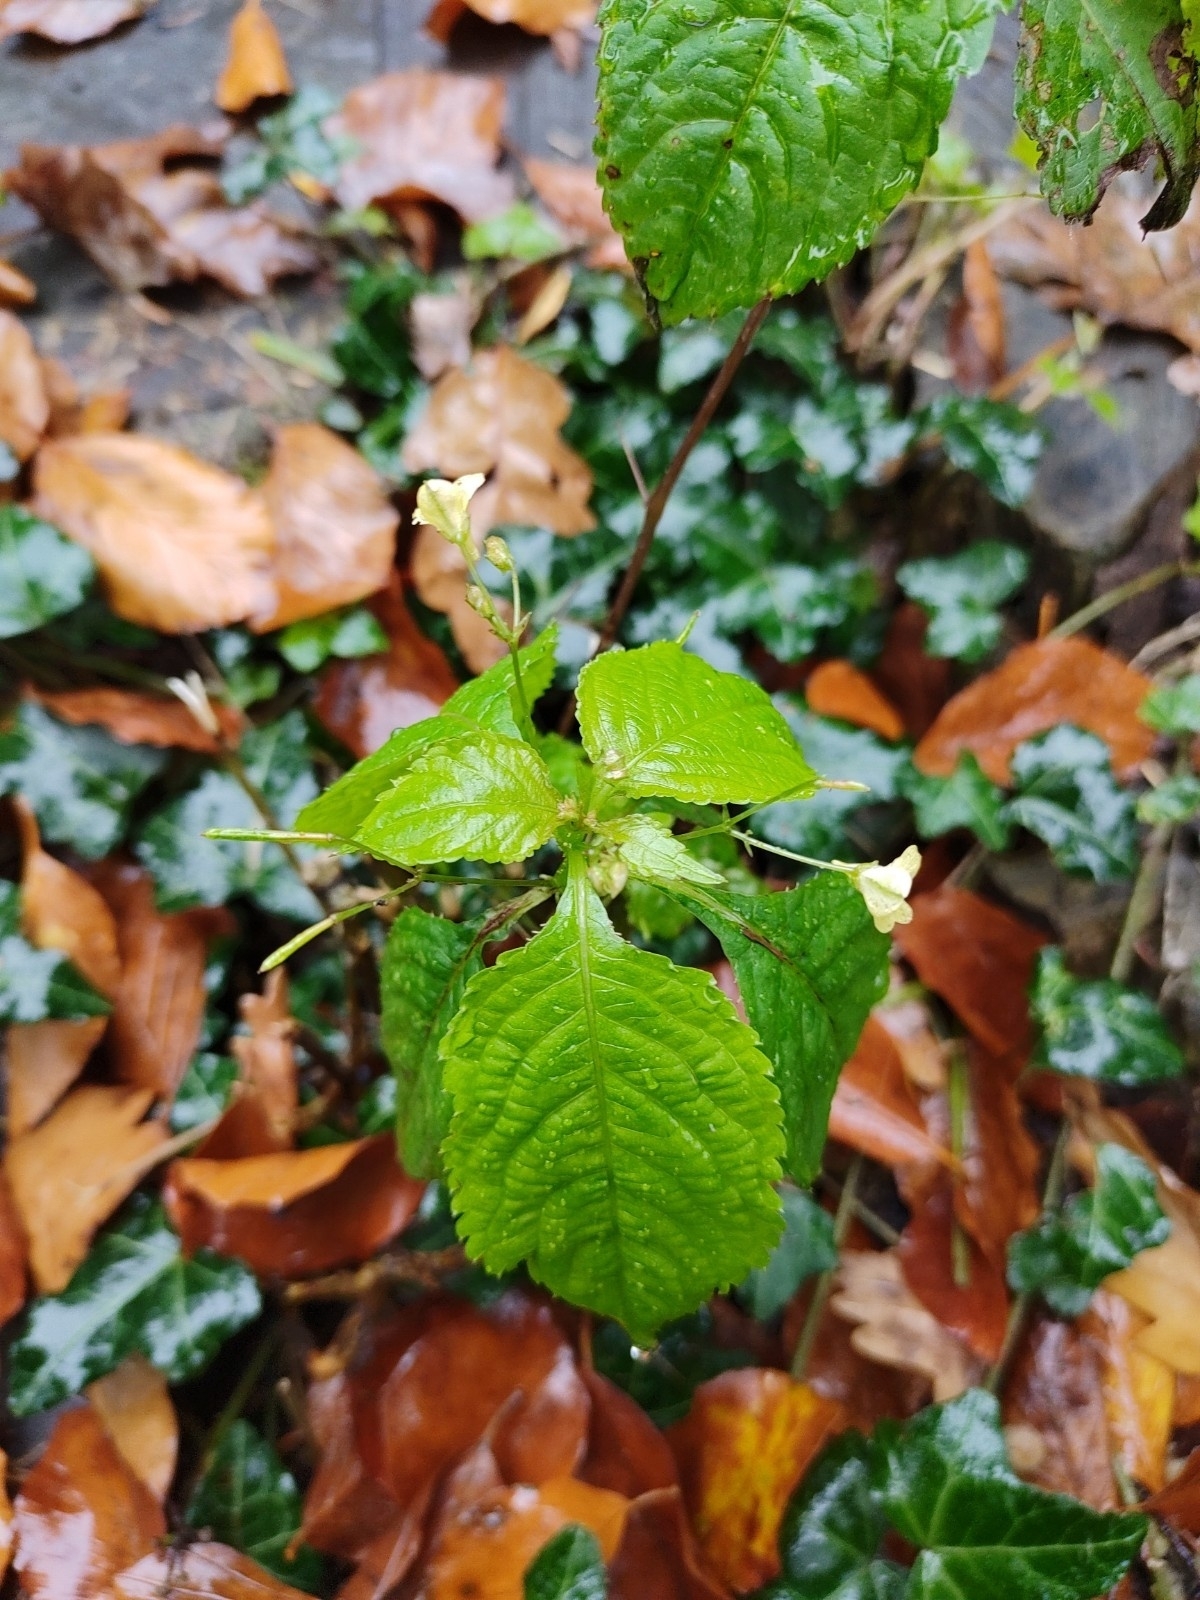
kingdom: Plantae
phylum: Tracheophyta
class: Magnoliopsida
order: Ericales
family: Balsaminaceae
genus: Impatiens
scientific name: Impatiens parviflora
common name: Small balsam
